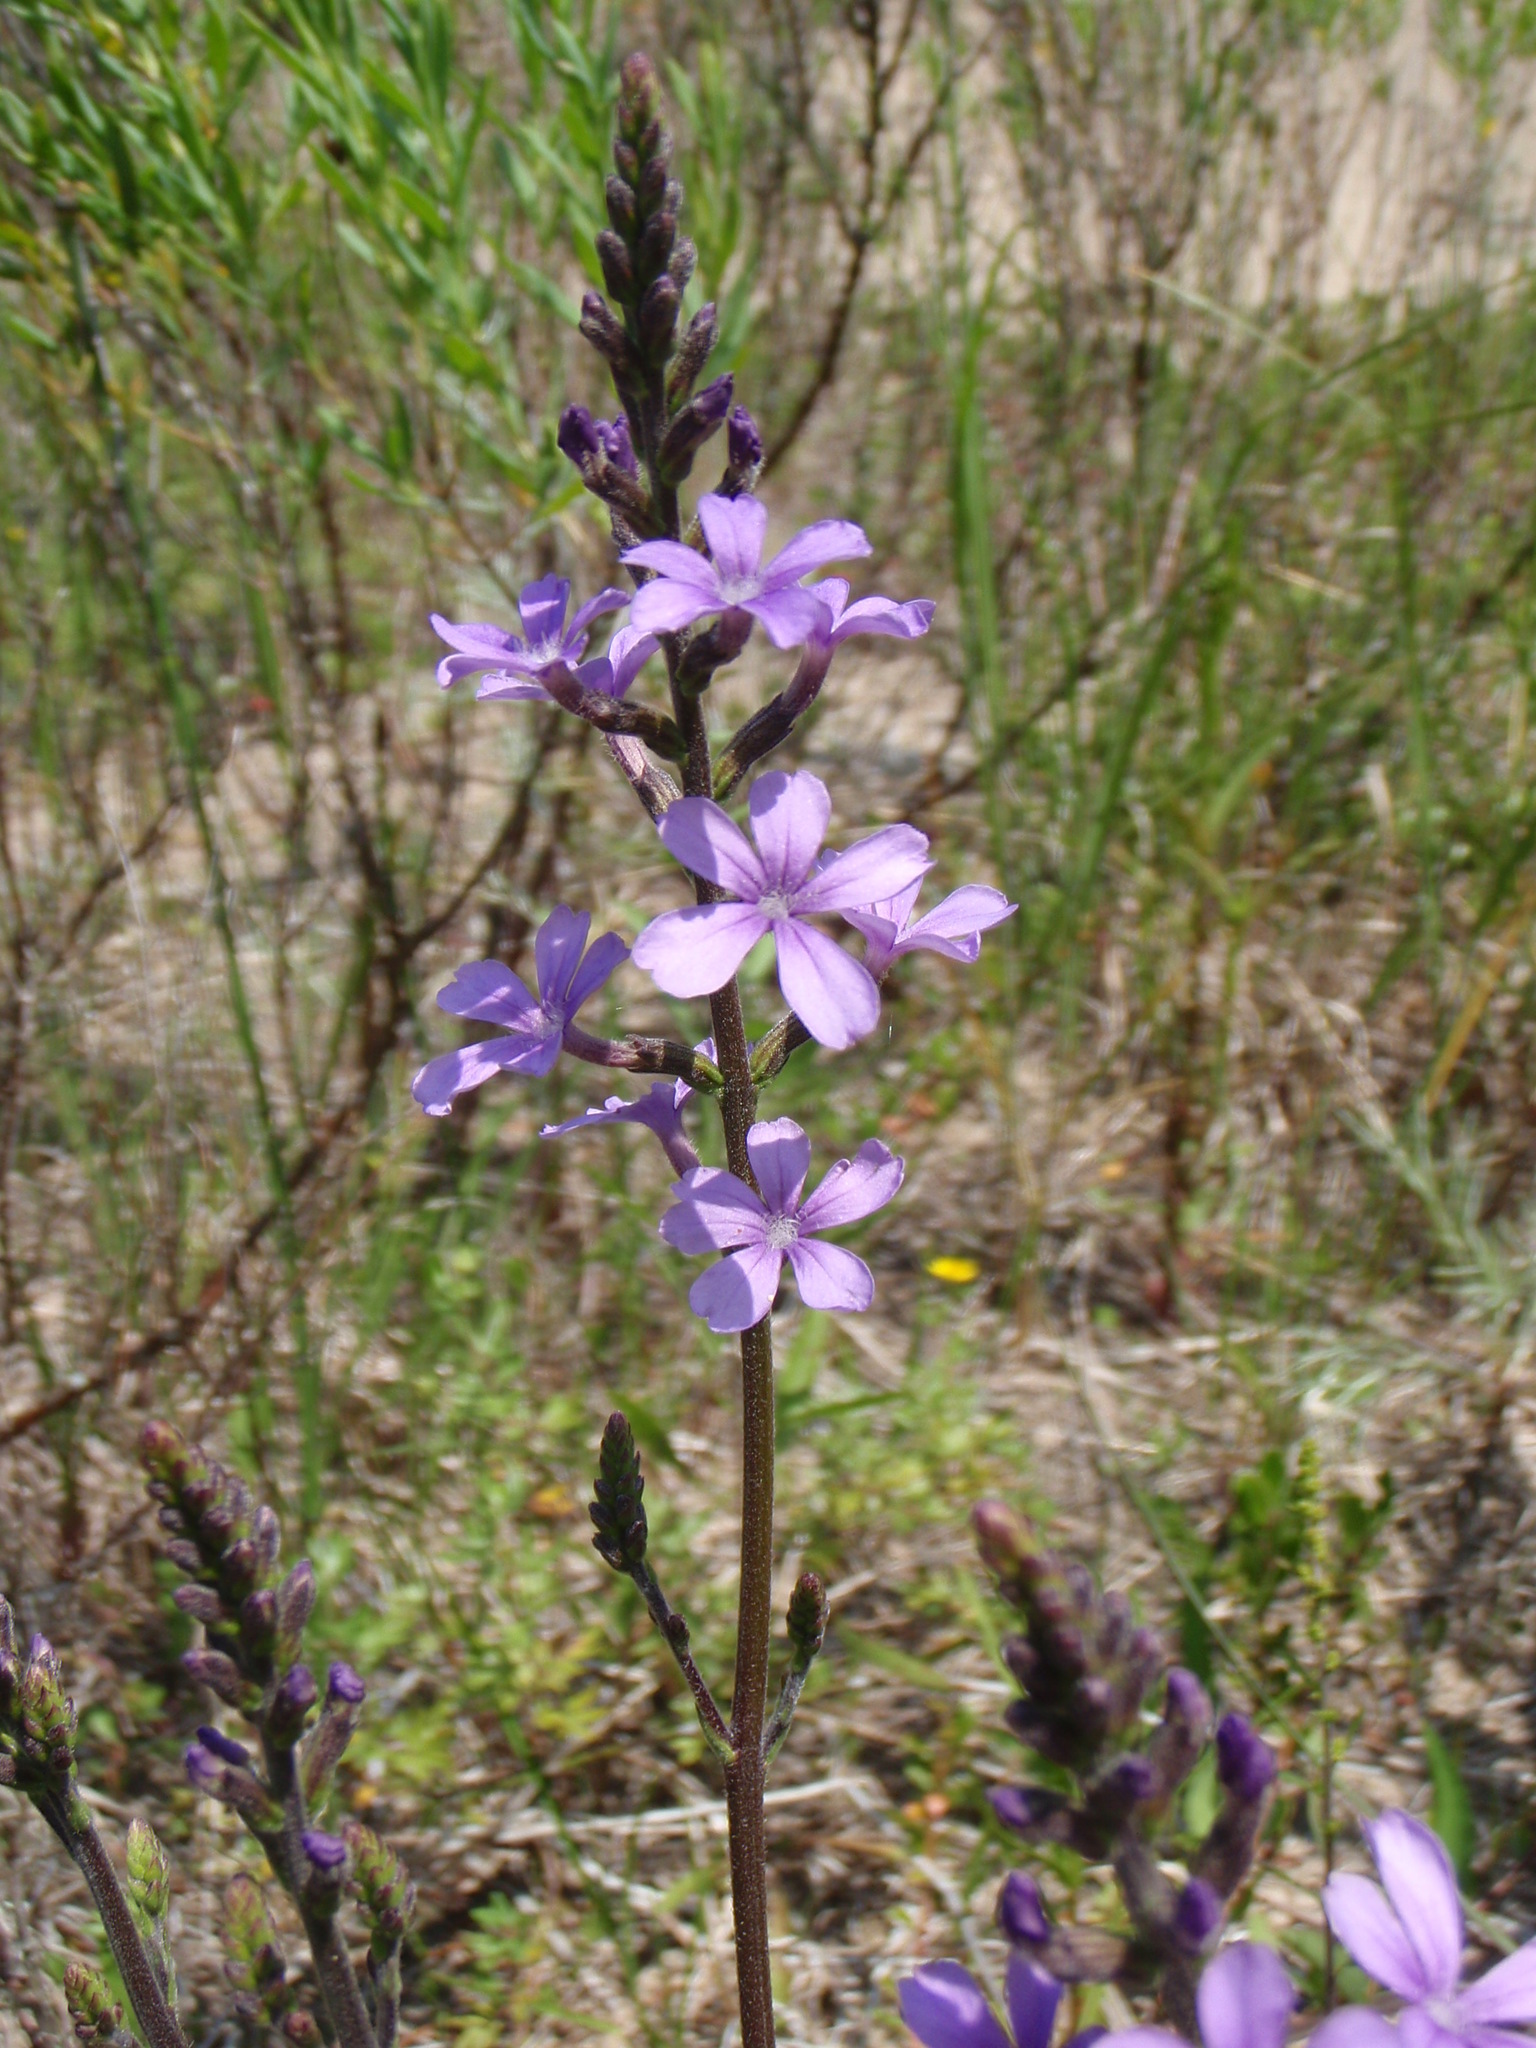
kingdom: Plantae
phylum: Tracheophyta
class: Magnoliopsida
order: Lamiales
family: Orobanchaceae
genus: Buchnera
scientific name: Buchnera americana
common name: American bluehearts
